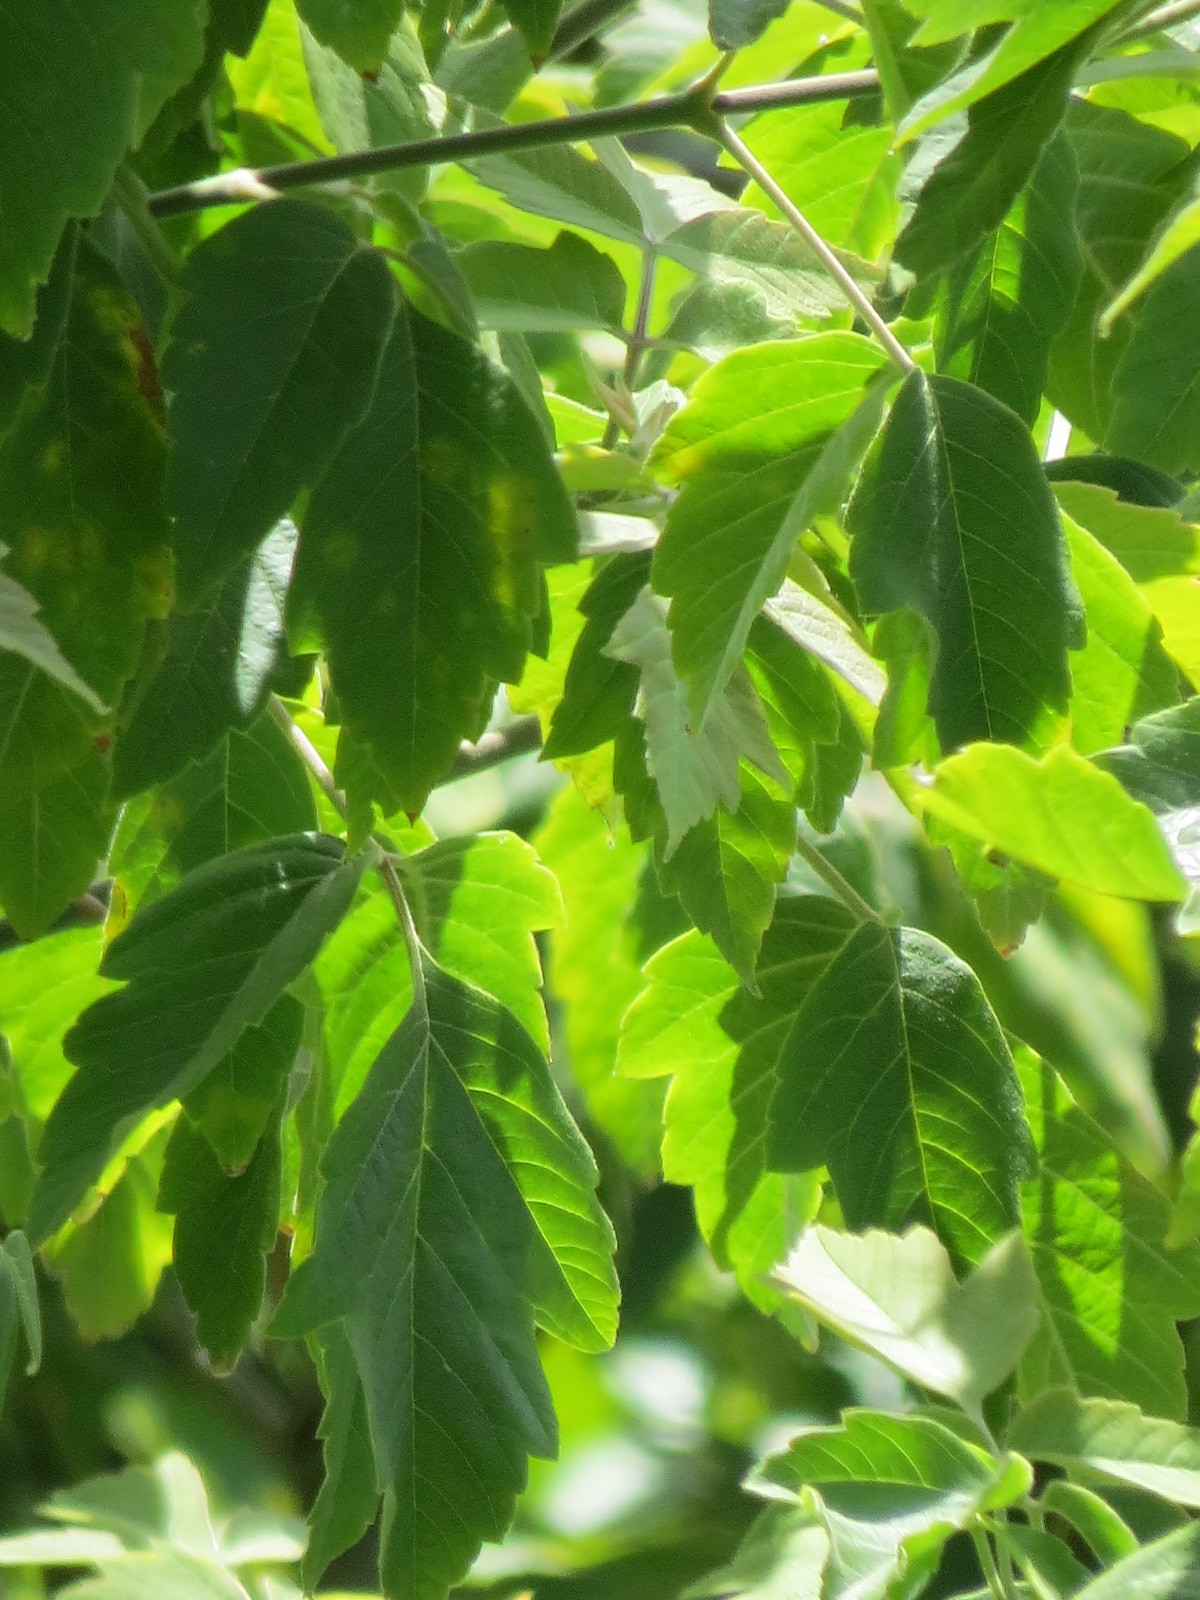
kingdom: Plantae
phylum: Tracheophyta
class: Magnoliopsida
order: Sapindales
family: Sapindaceae
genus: Acer
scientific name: Acer negundo
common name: Ashleaf maple
